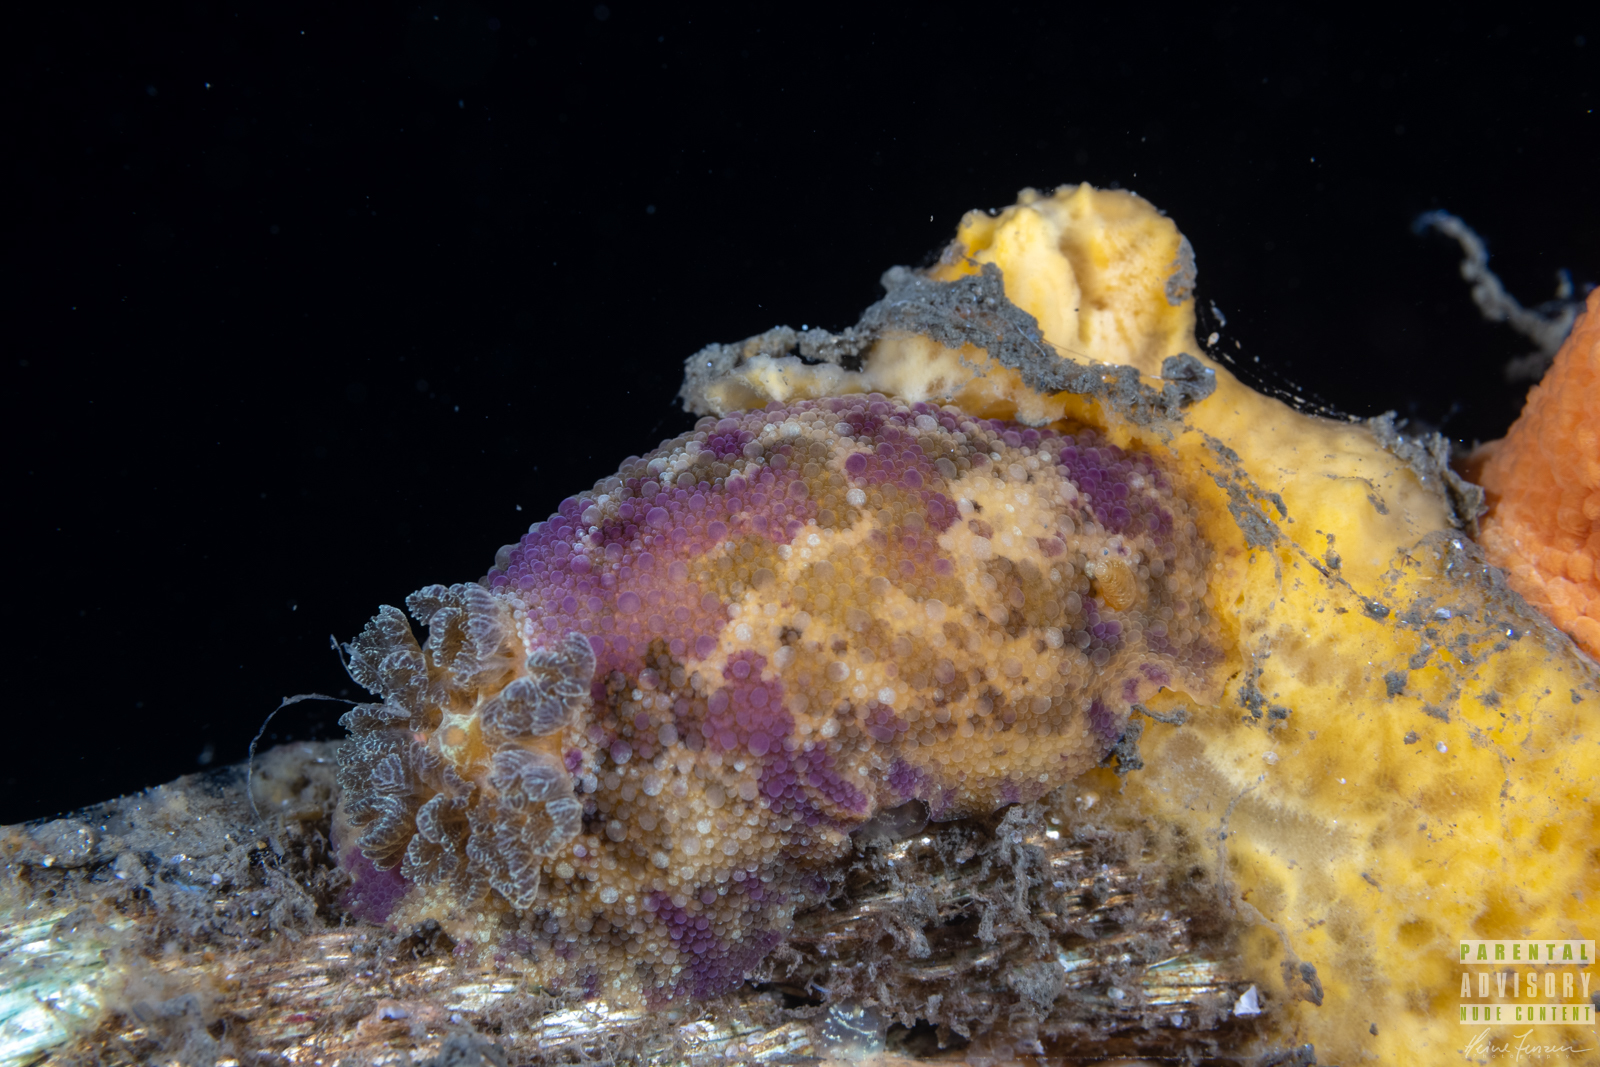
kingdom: Animalia
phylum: Mollusca
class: Gastropoda
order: Nudibranchia
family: Dorididae
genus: Doris
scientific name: Doris pseudoargus
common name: Sea lemon
